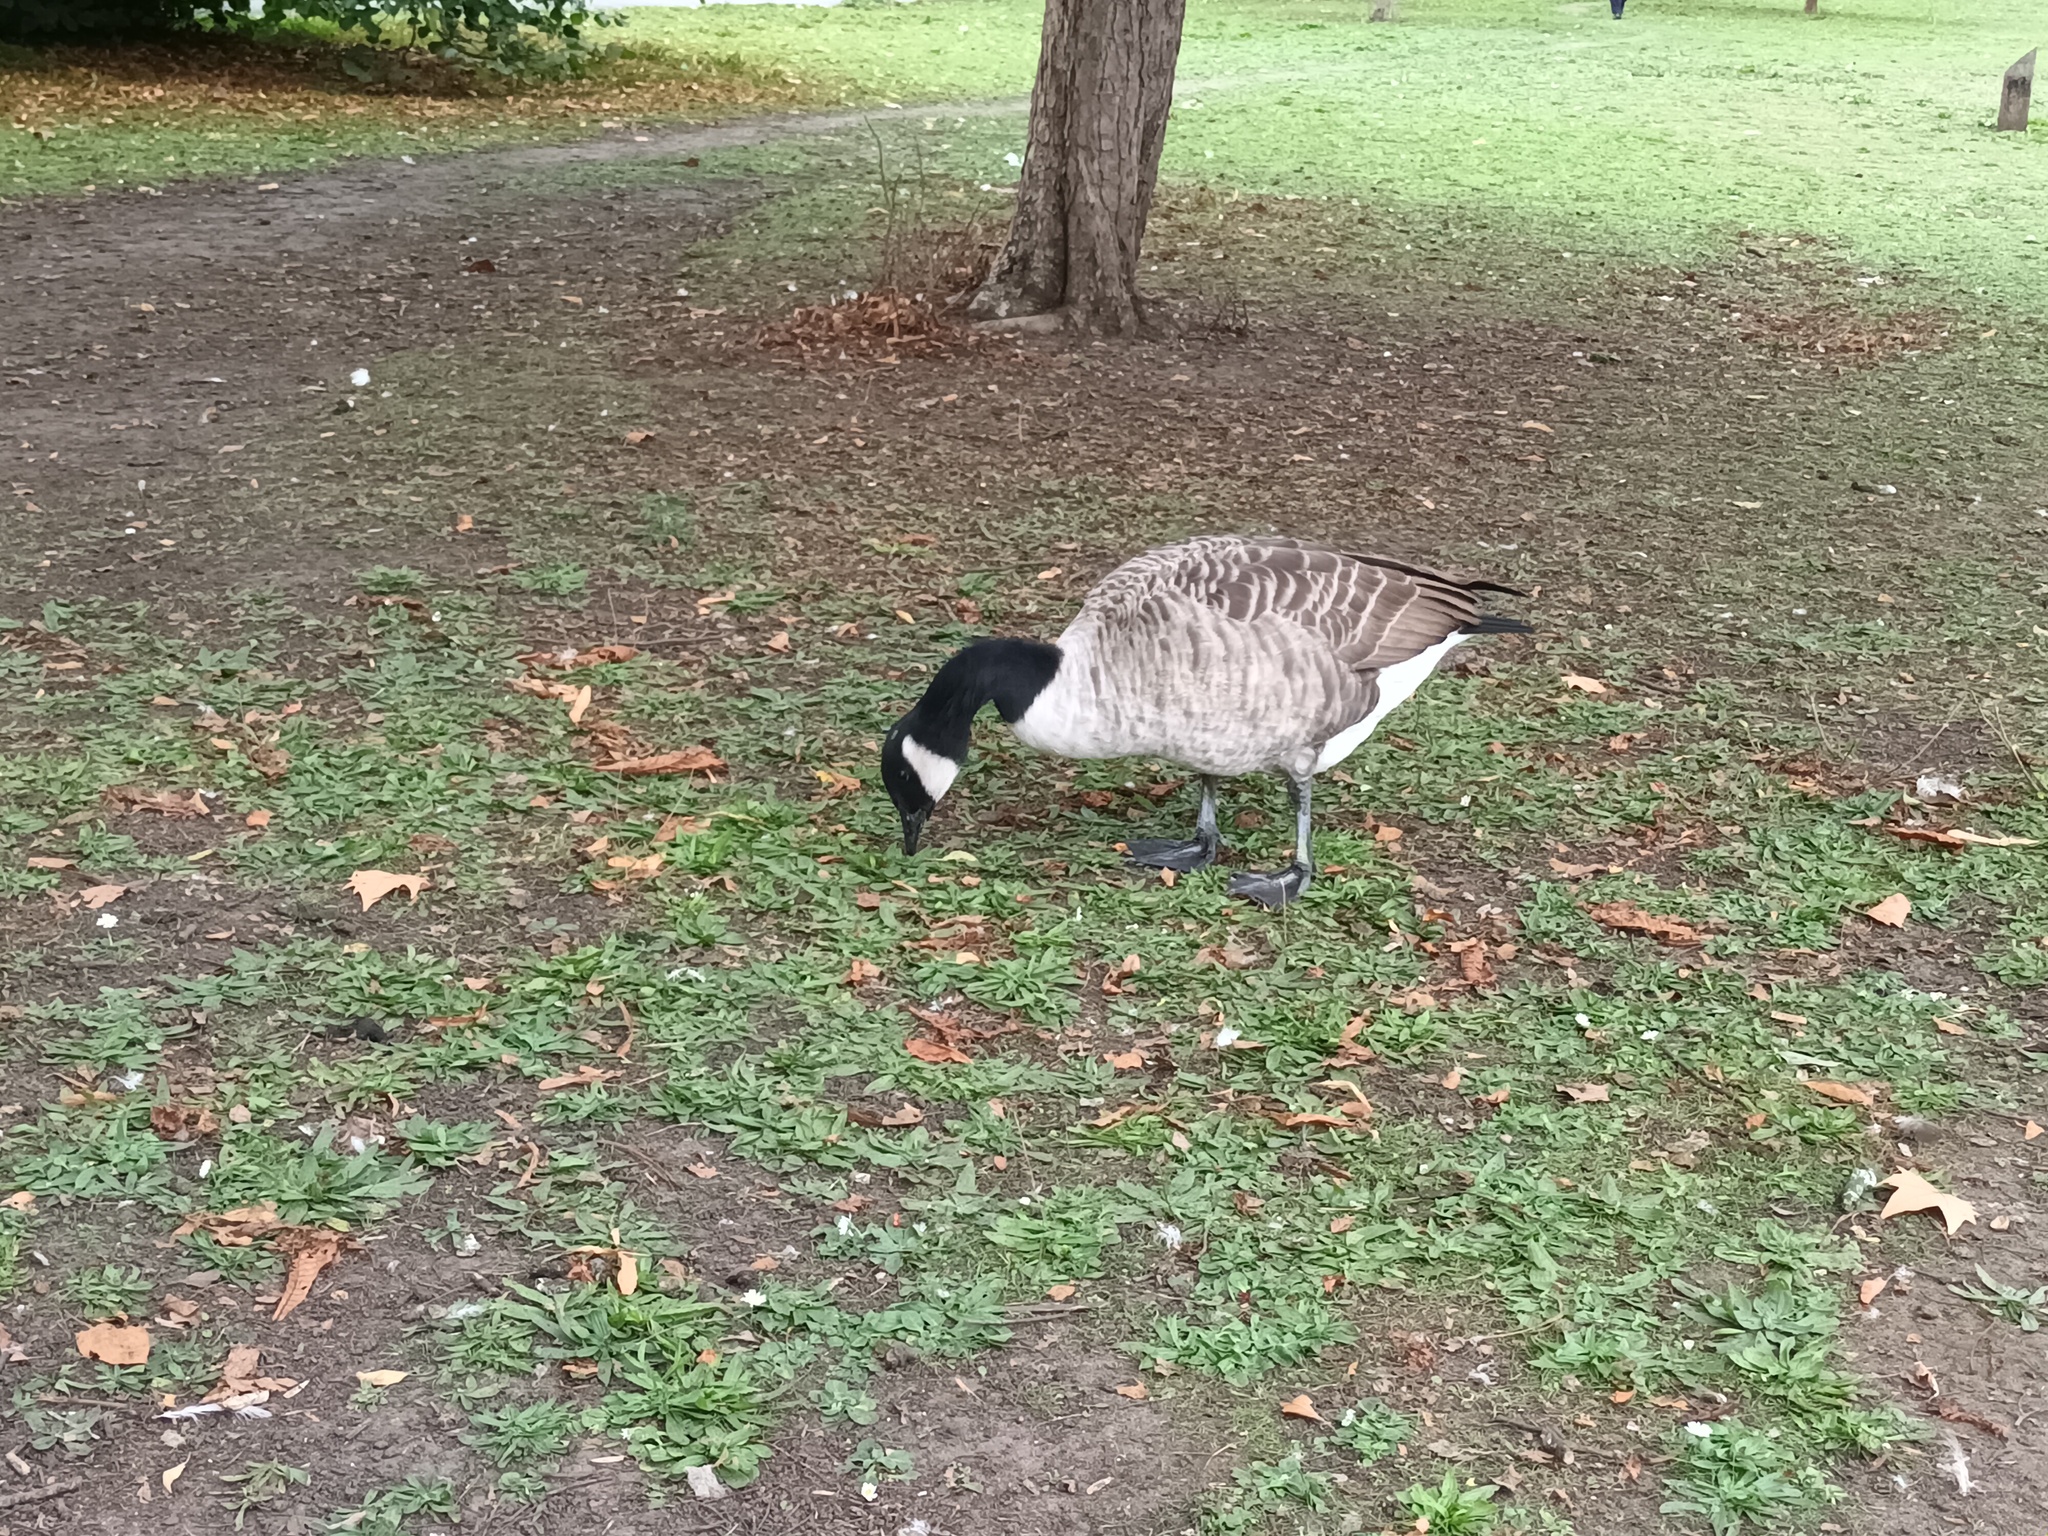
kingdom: Animalia
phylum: Chordata
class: Aves
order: Anseriformes
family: Anatidae
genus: Branta
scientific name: Branta canadensis
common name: Canada goose
